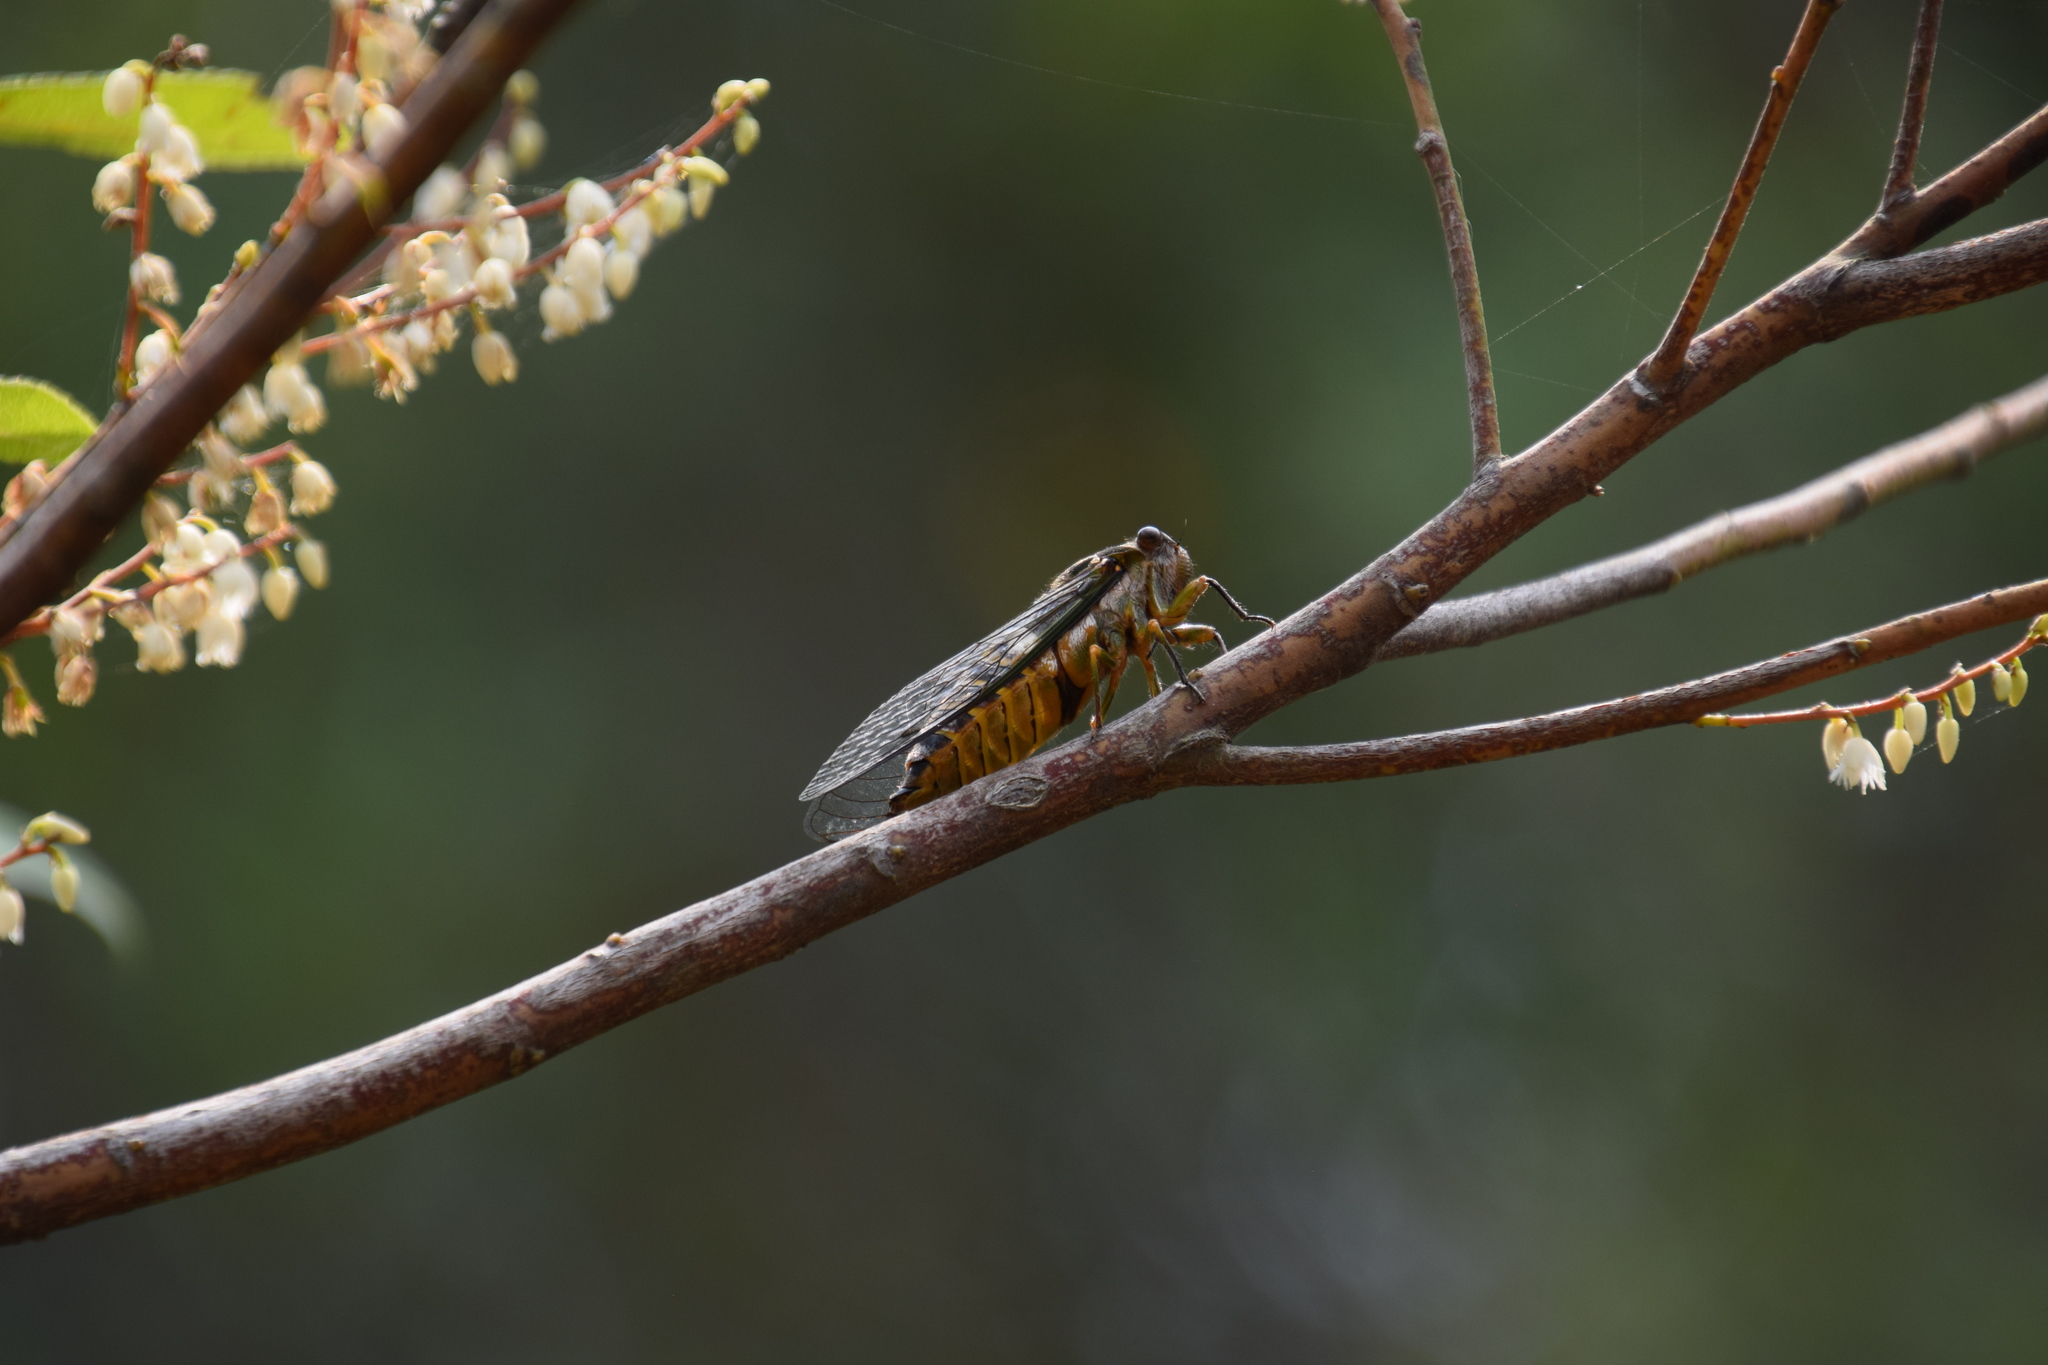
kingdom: Animalia
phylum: Arthropoda
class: Insecta
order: Hemiptera
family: Cicadidae
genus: Psaltoda
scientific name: Psaltoda plaga
